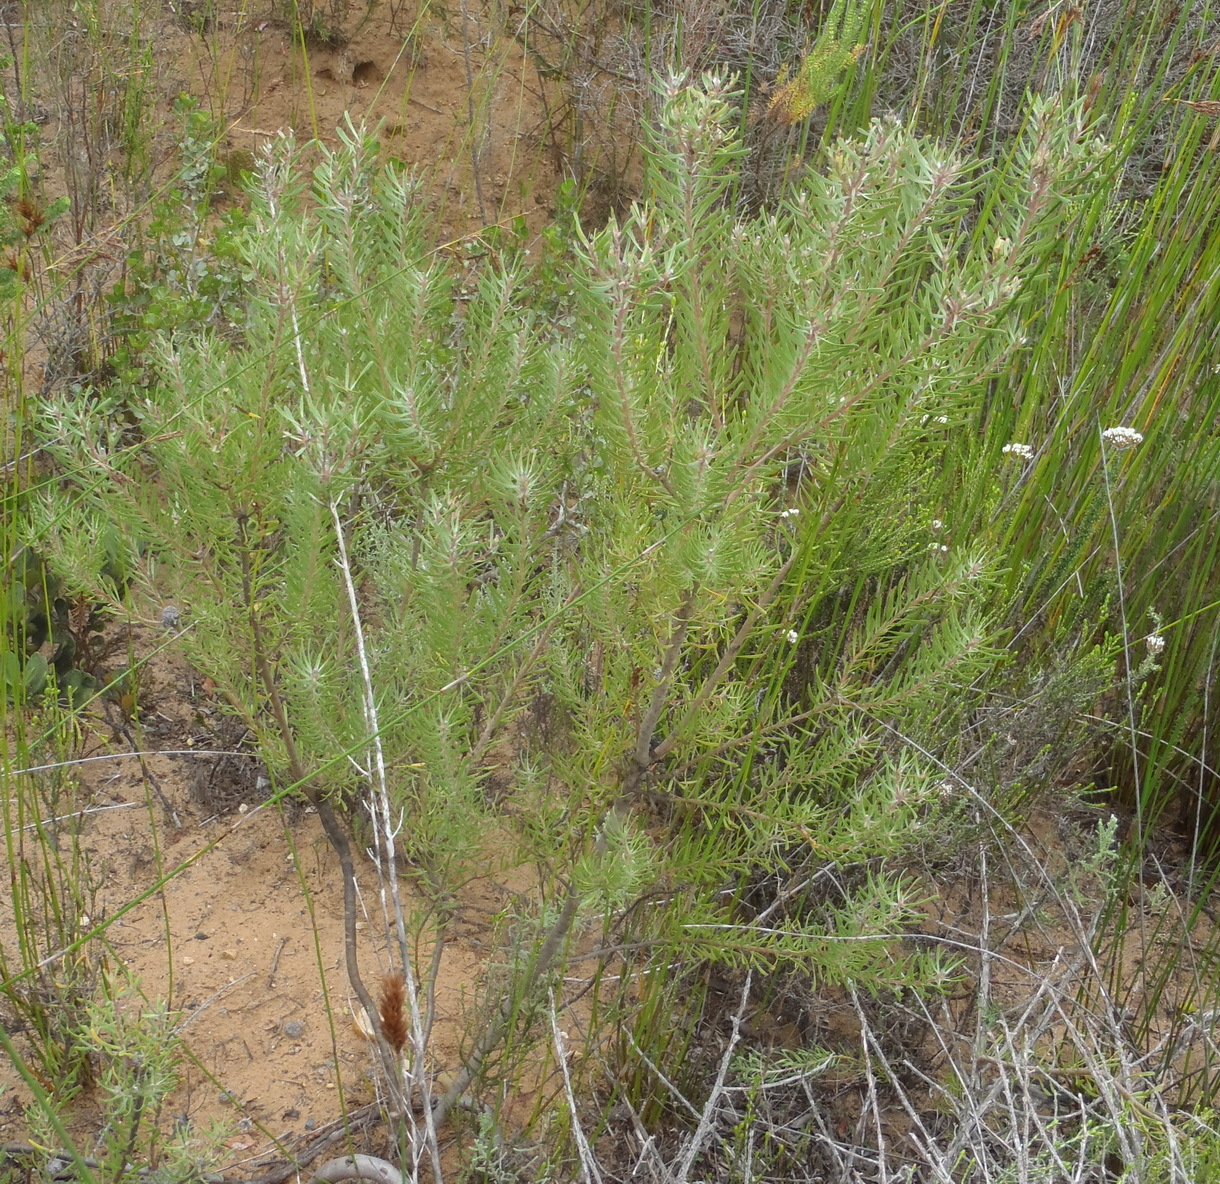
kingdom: Plantae
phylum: Tracheophyta
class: Magnoliopsida
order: Proteales
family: Proteaceae
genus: Leucadendron
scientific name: Leucadendron galpinii
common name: Hairless conebush
